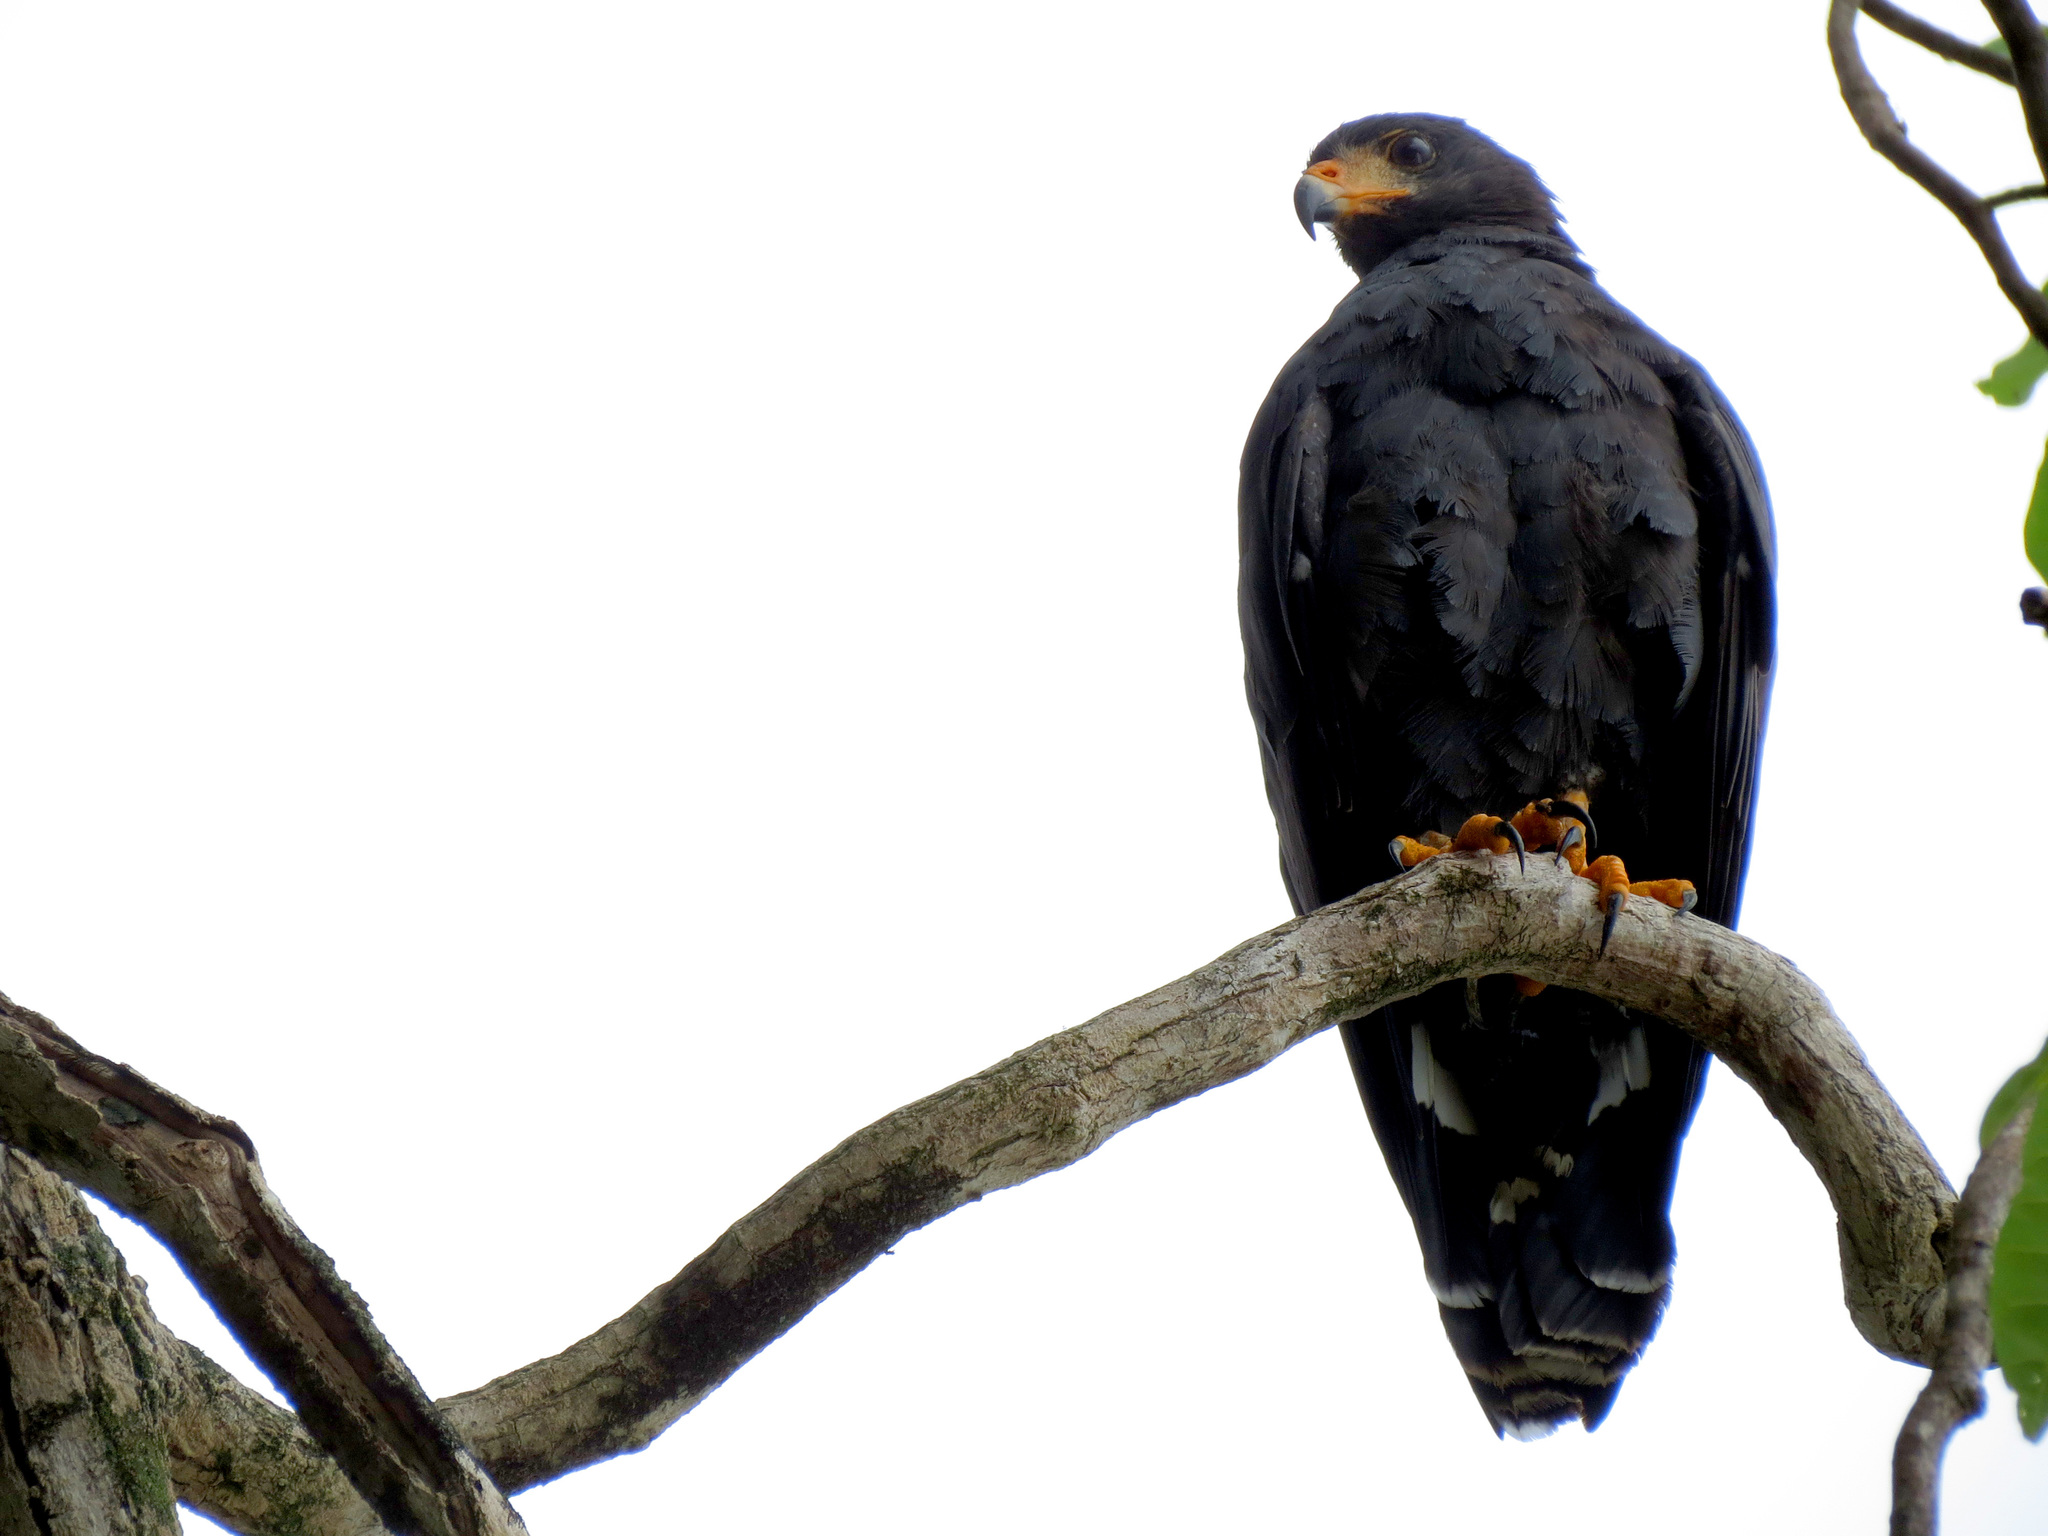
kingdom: Animalia
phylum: Chordata
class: Aves
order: Accipitriformes
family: Accipitridae
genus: Buteogallus
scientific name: Buteogallus anthracinus
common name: Common black hawk
